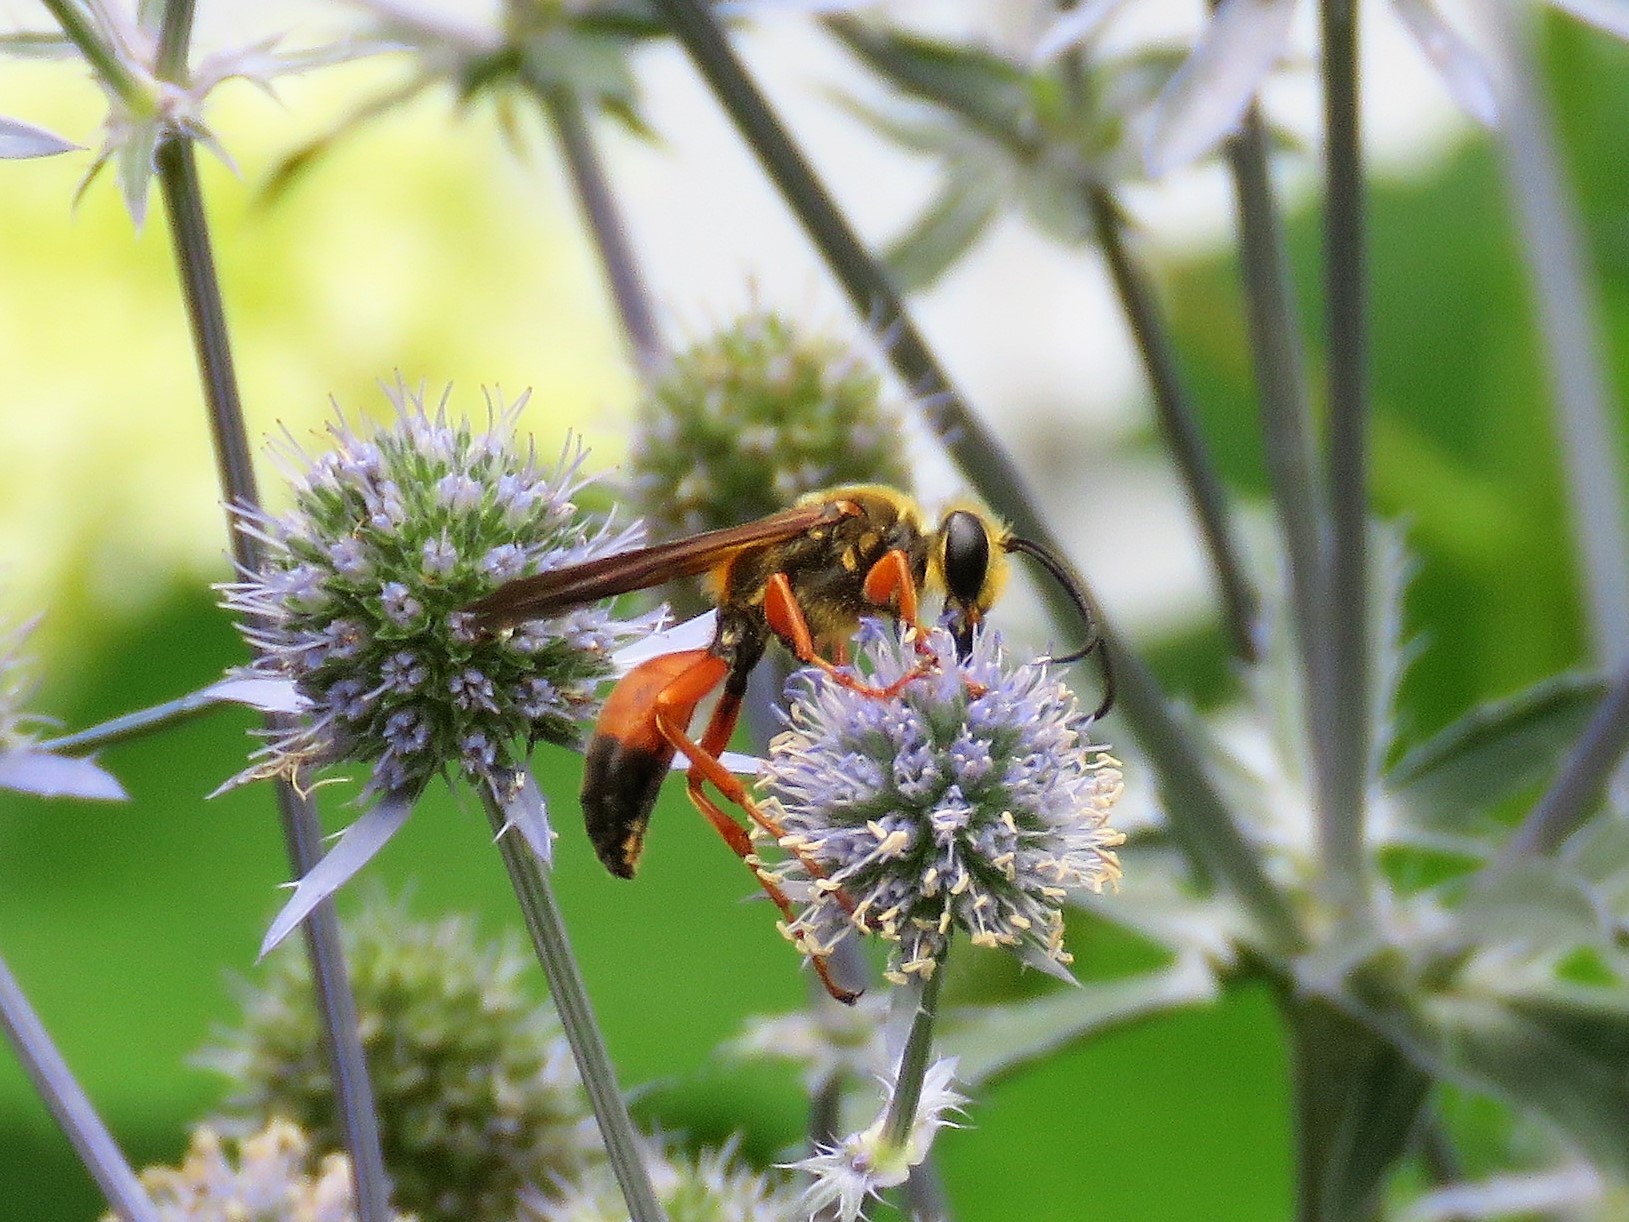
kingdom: Animalia
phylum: Arthropoda
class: Insecta
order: Hymenoptera
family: Sphecidae
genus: Sphex
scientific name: Sphex ichneumoneus
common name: Great golden digger wasp
